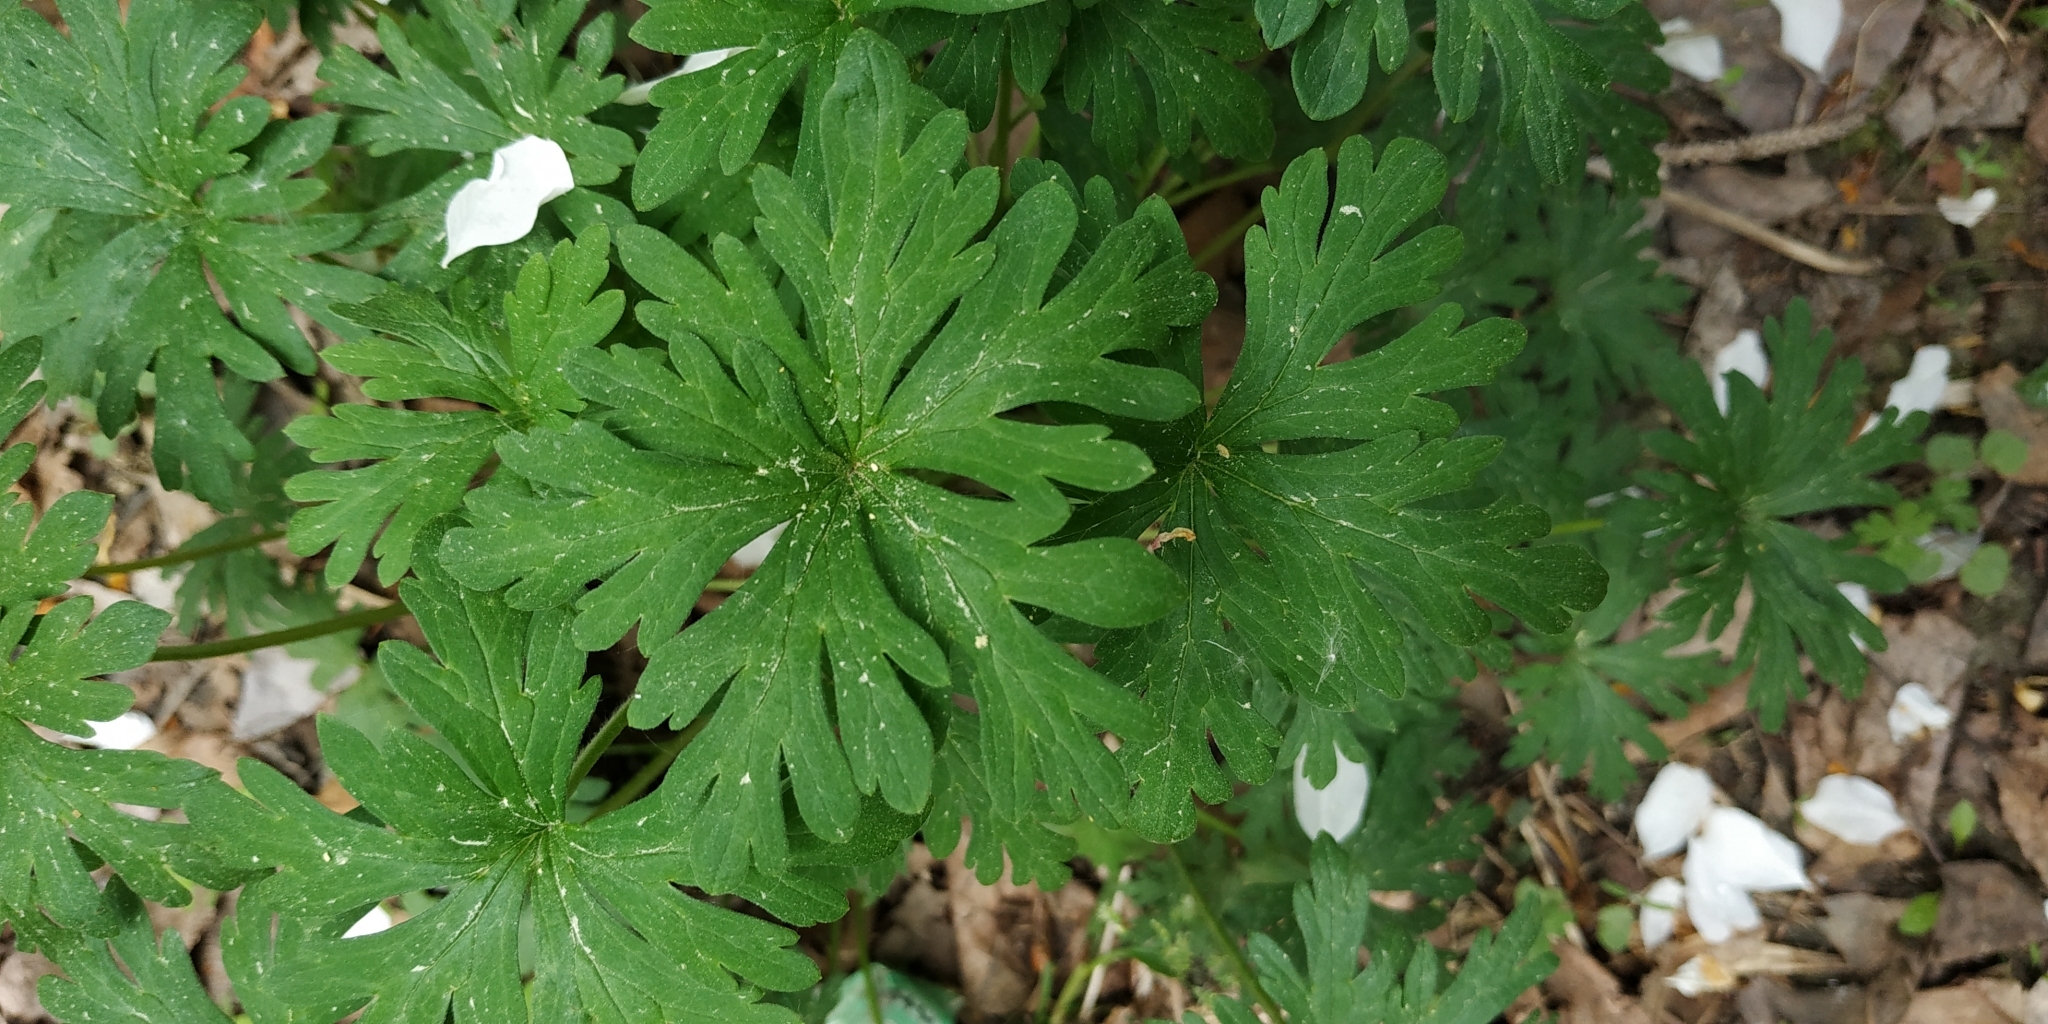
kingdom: Plantae
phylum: Tracheophyta
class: Magnoliopsida
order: Geraniales
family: Geraniaceae
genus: Geranium
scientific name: Geranium sibiricum
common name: Siberian crane's-bill
